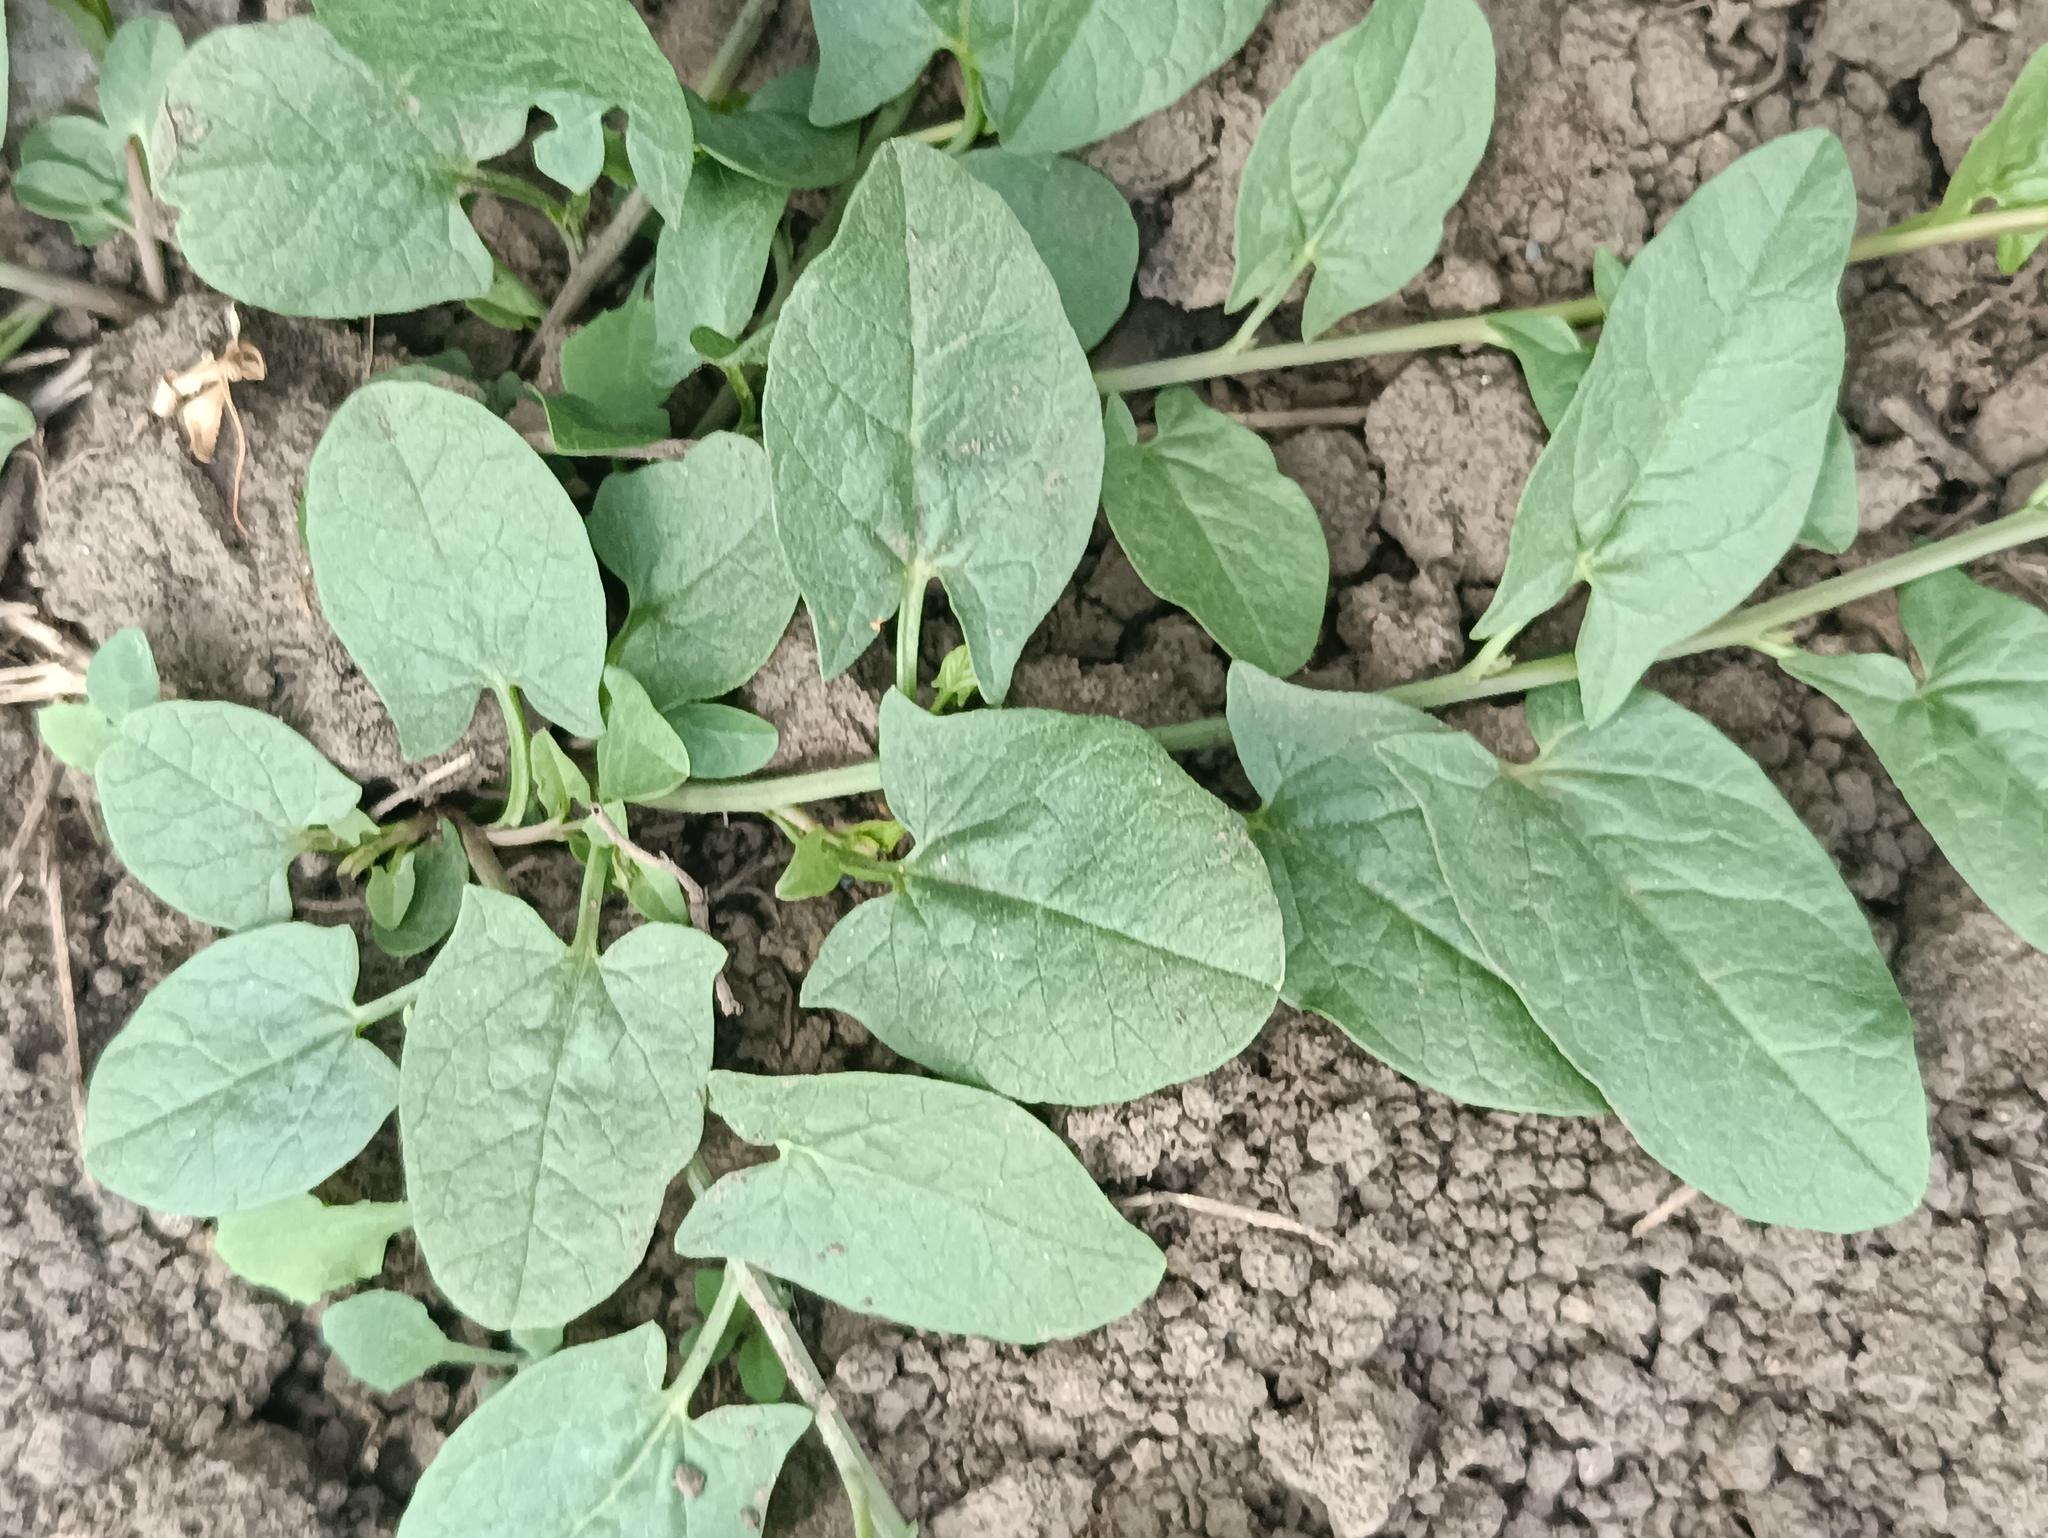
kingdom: Plantae
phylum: Tracheophyta
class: Magnoliopsida
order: Solanales
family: Convolvulaceae
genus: Convolvulus
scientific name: Convolvulus arvensis
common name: Field bindweed
